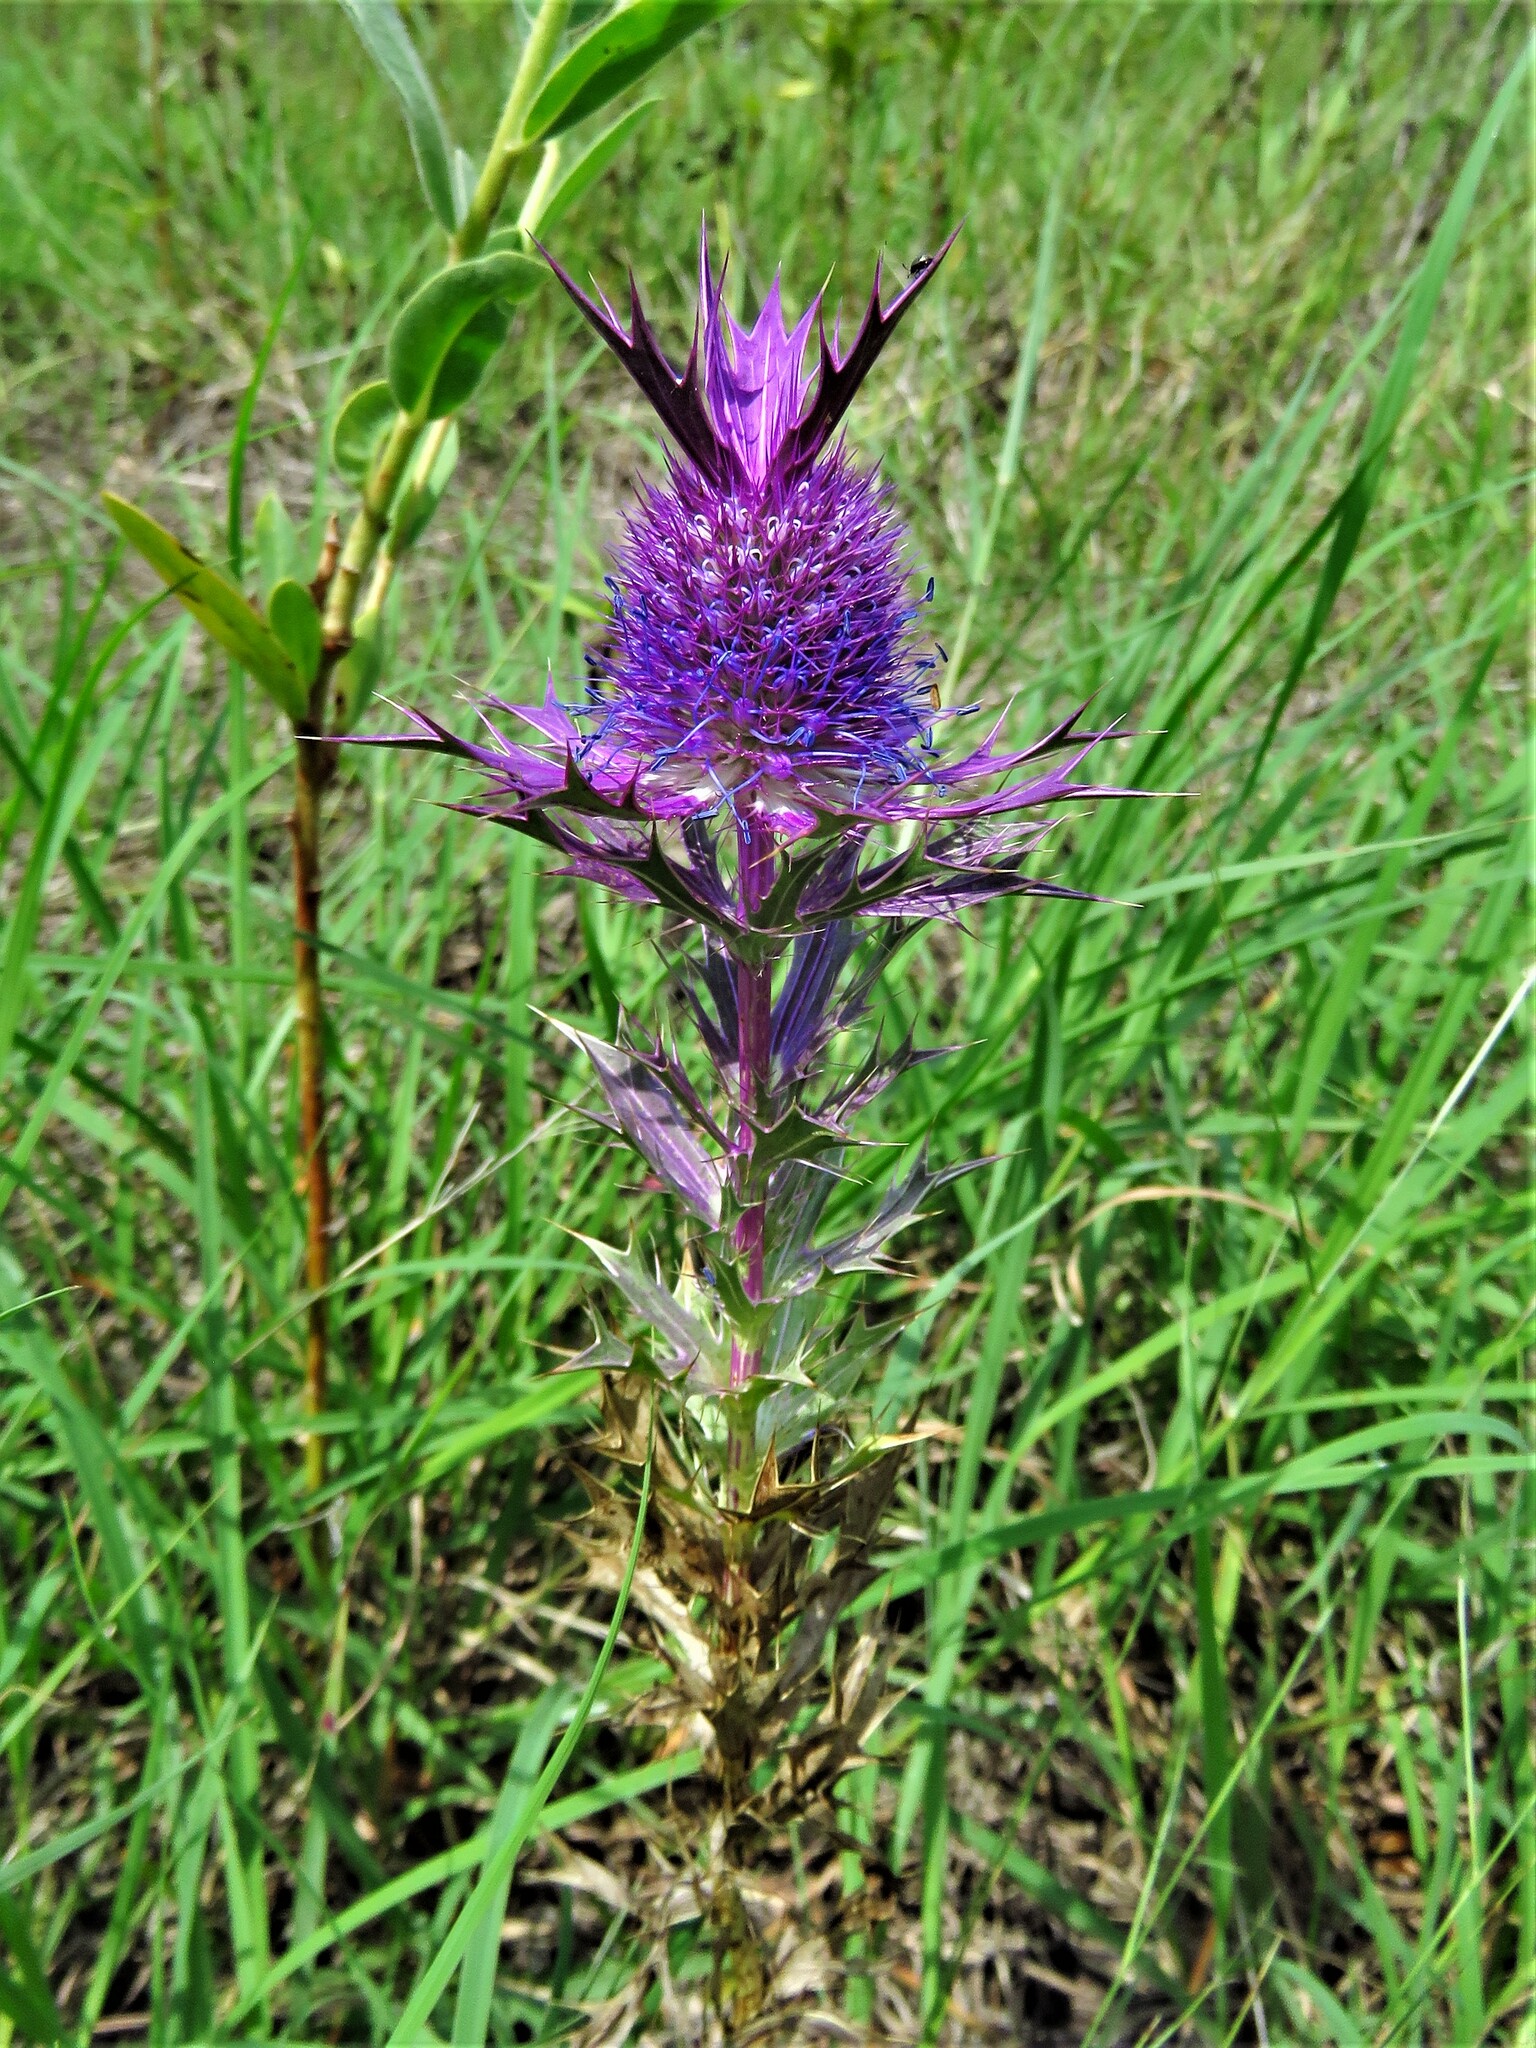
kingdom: Plantae
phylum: Tracheophyta
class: Magnoliopsida
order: Apiales
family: Apiaceae
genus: Eryngium
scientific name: Eryngium leavenworthii
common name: Leavenworth's eryngo
